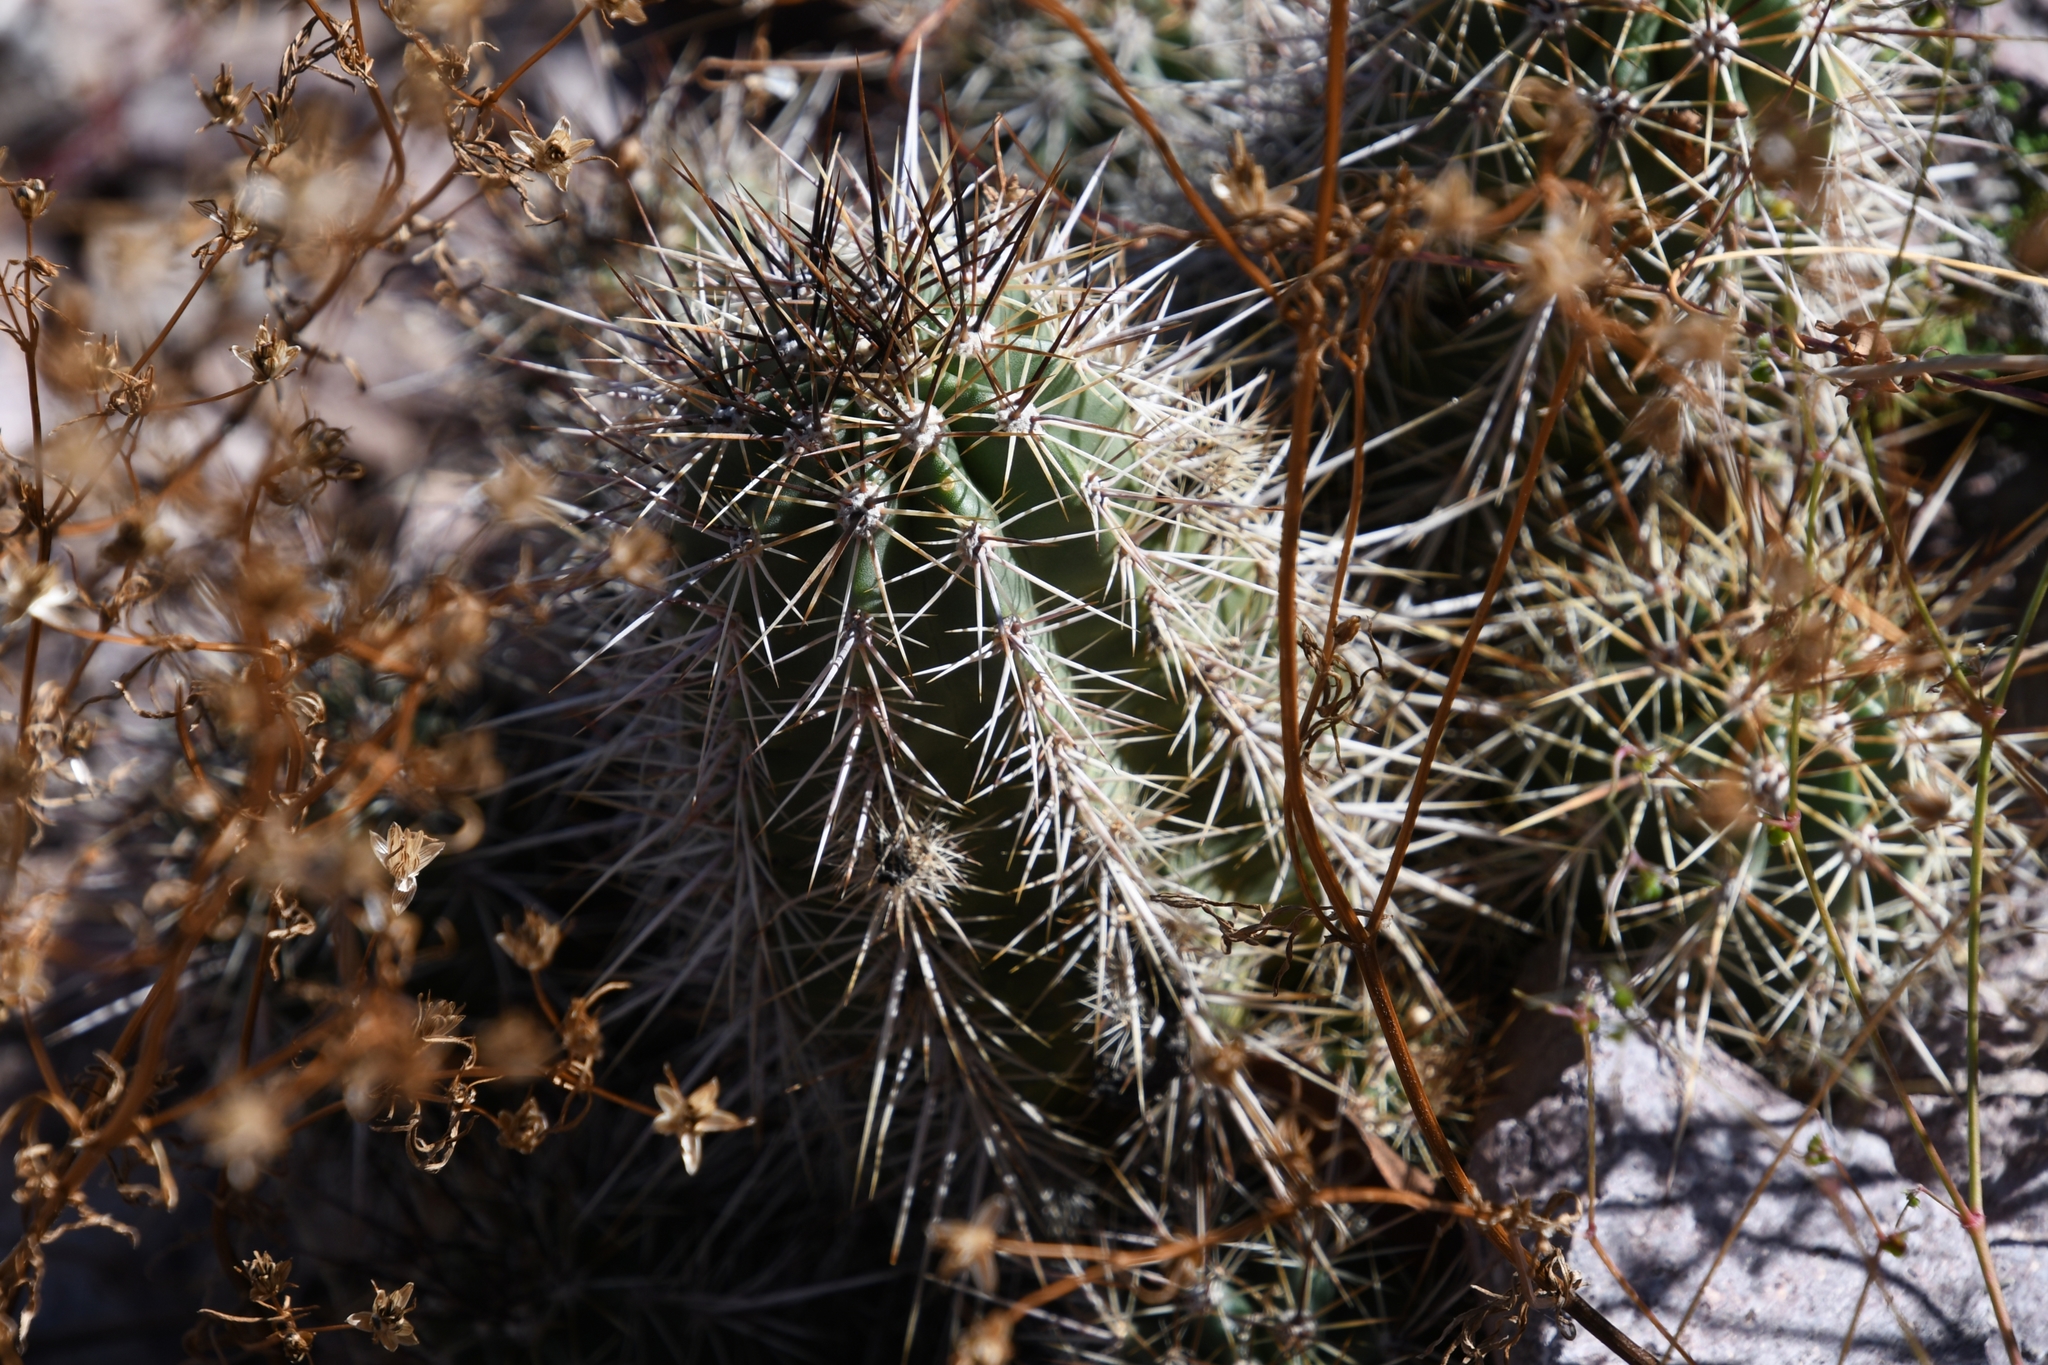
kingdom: Plantae
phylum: Tracheophyta
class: Magnoliopsida
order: Caryophyllales
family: Cactaceae
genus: Echinocereus
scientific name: Echinocereus coccineus
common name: Scarlet hedgehog cactus
